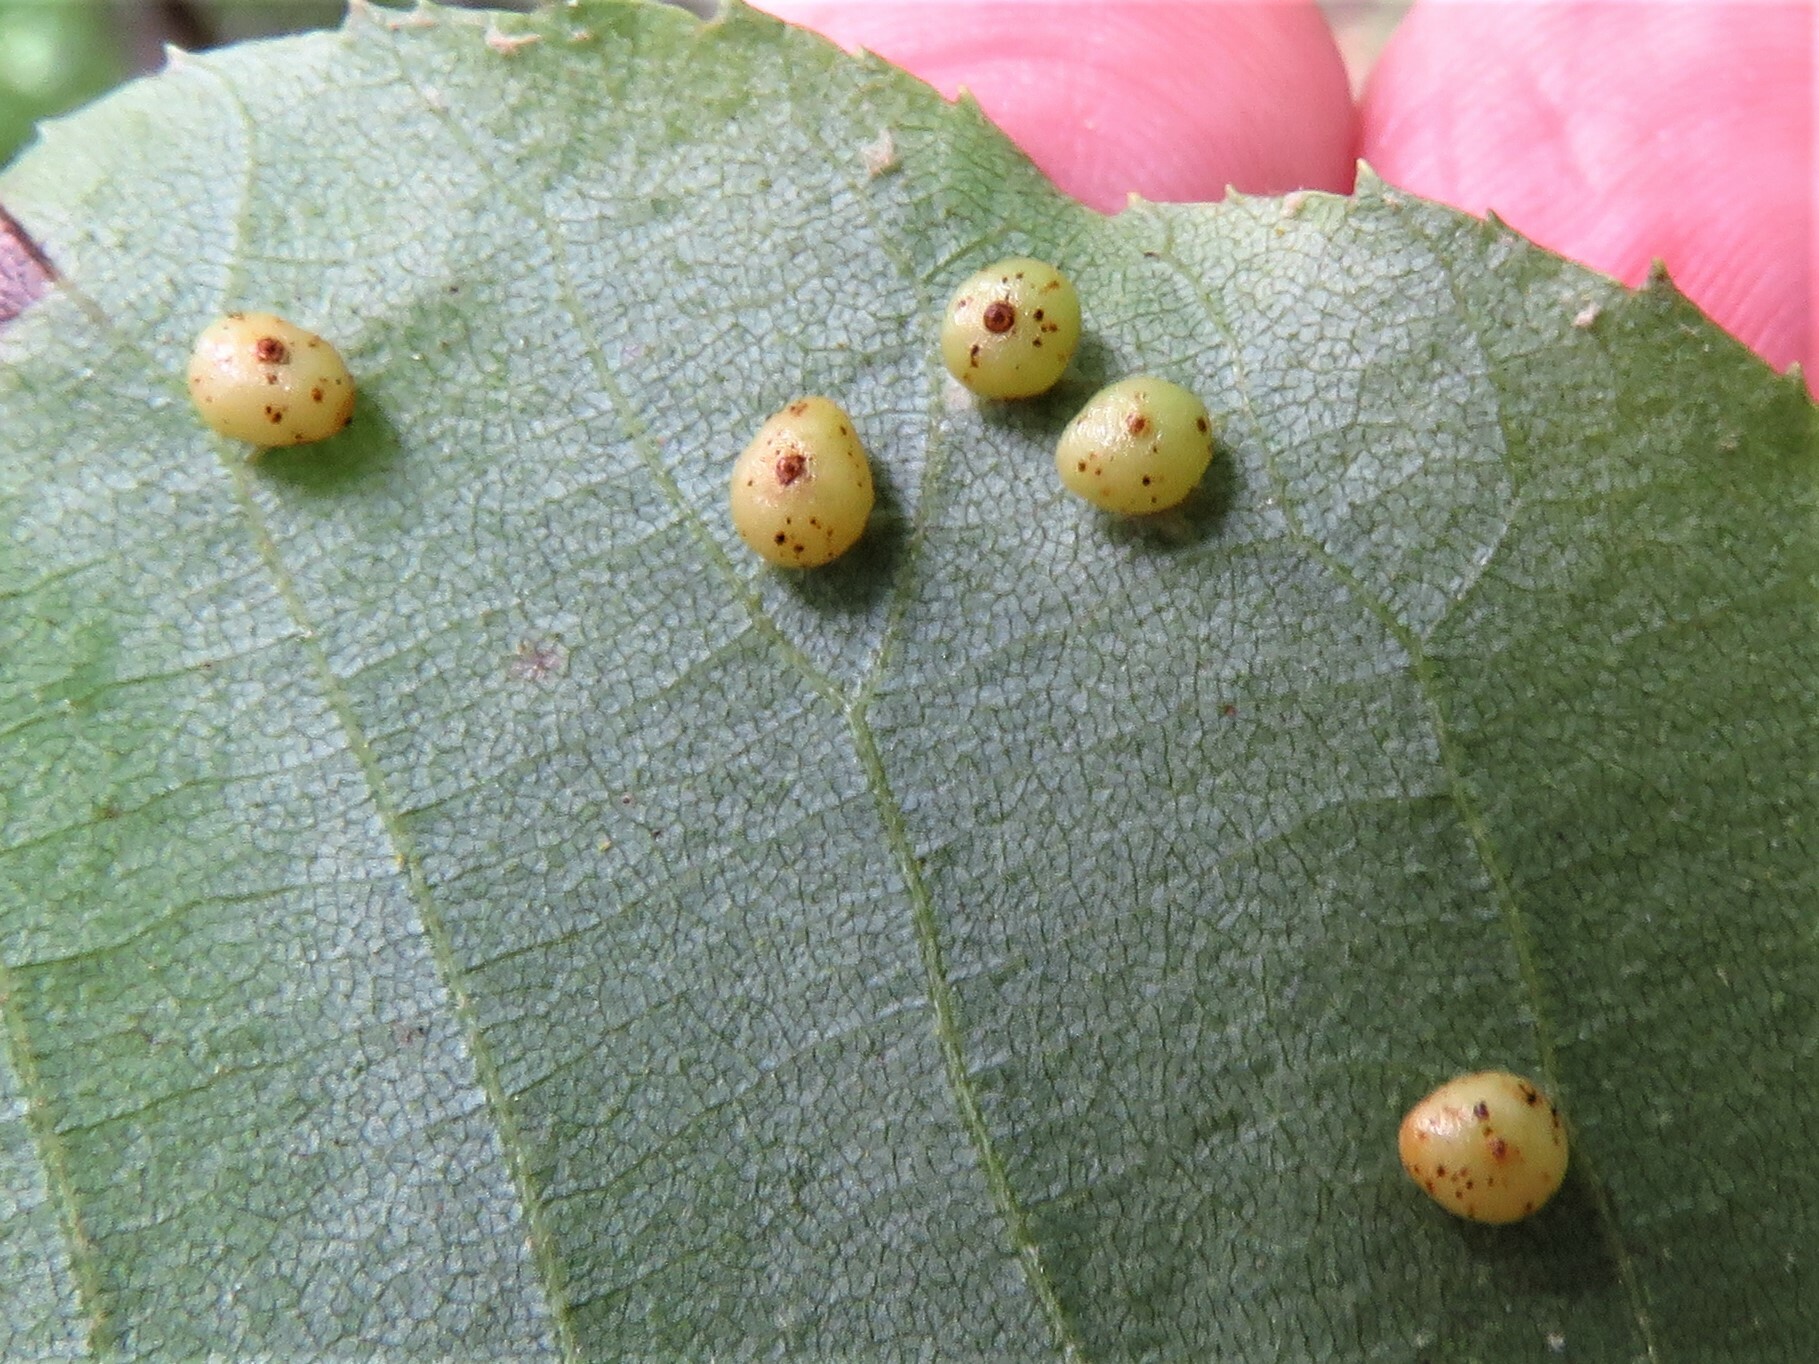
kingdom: Animalia
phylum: Arthropoda
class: Insecta
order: Diptera
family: Cecidomyiidae
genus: Caryomyia
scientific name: Caryomyia caryae
